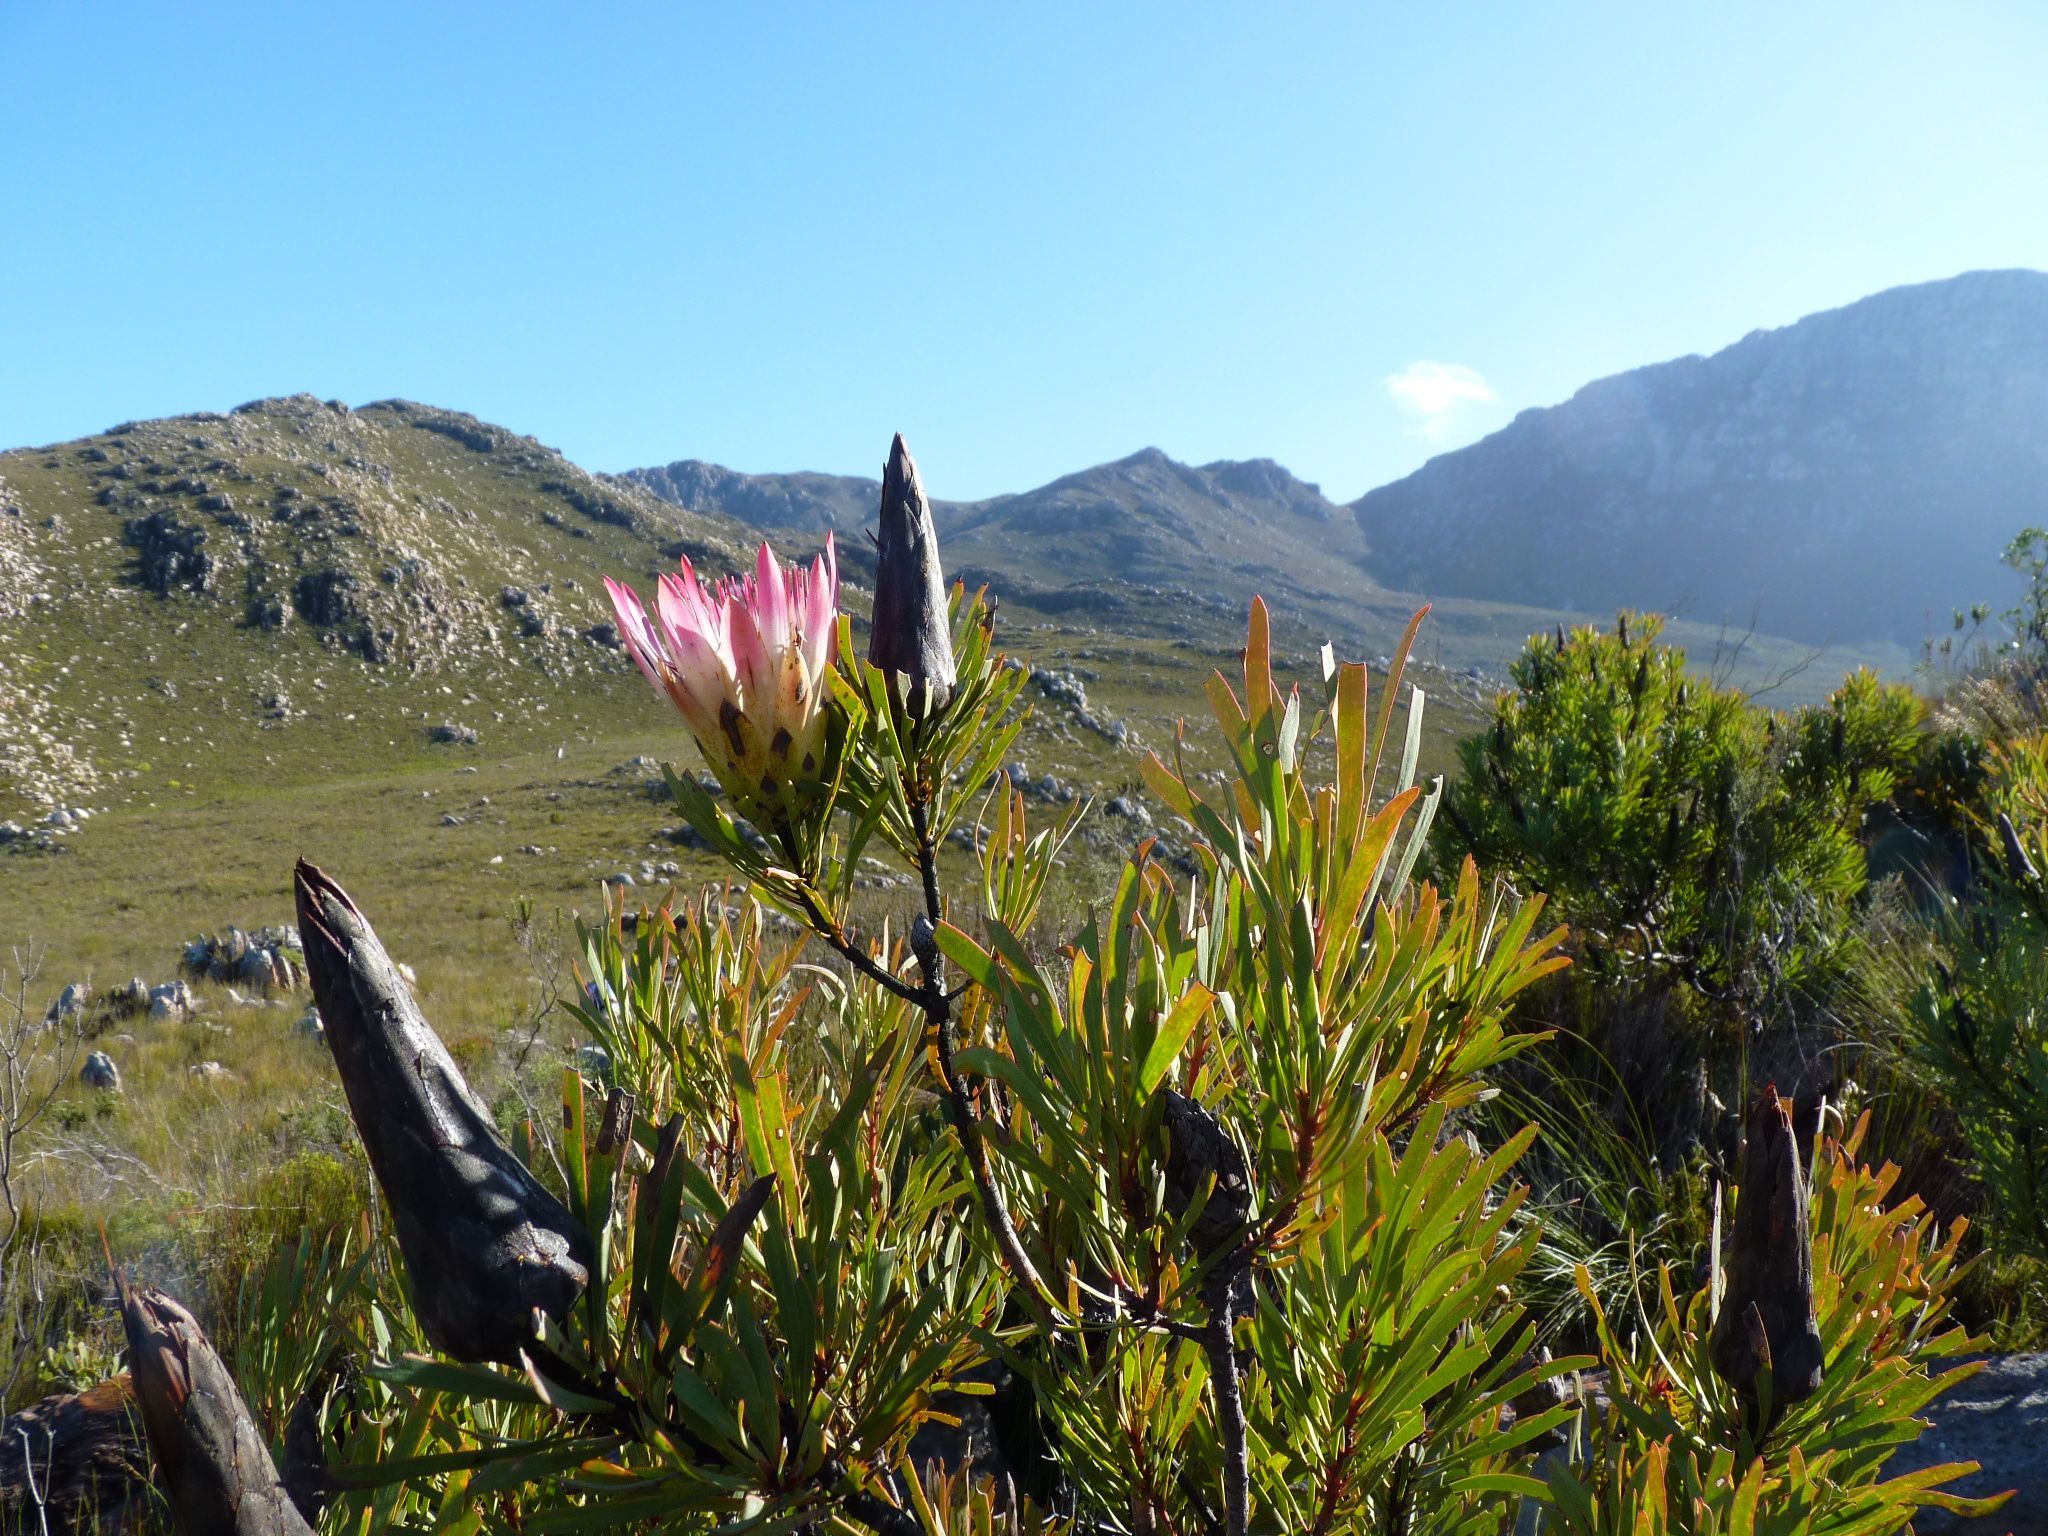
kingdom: Plantae
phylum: Tracheophyta
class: Magnoliopsida
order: Proteales
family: Proteaceae
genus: Protea
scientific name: Protea repens
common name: Sugarbush
